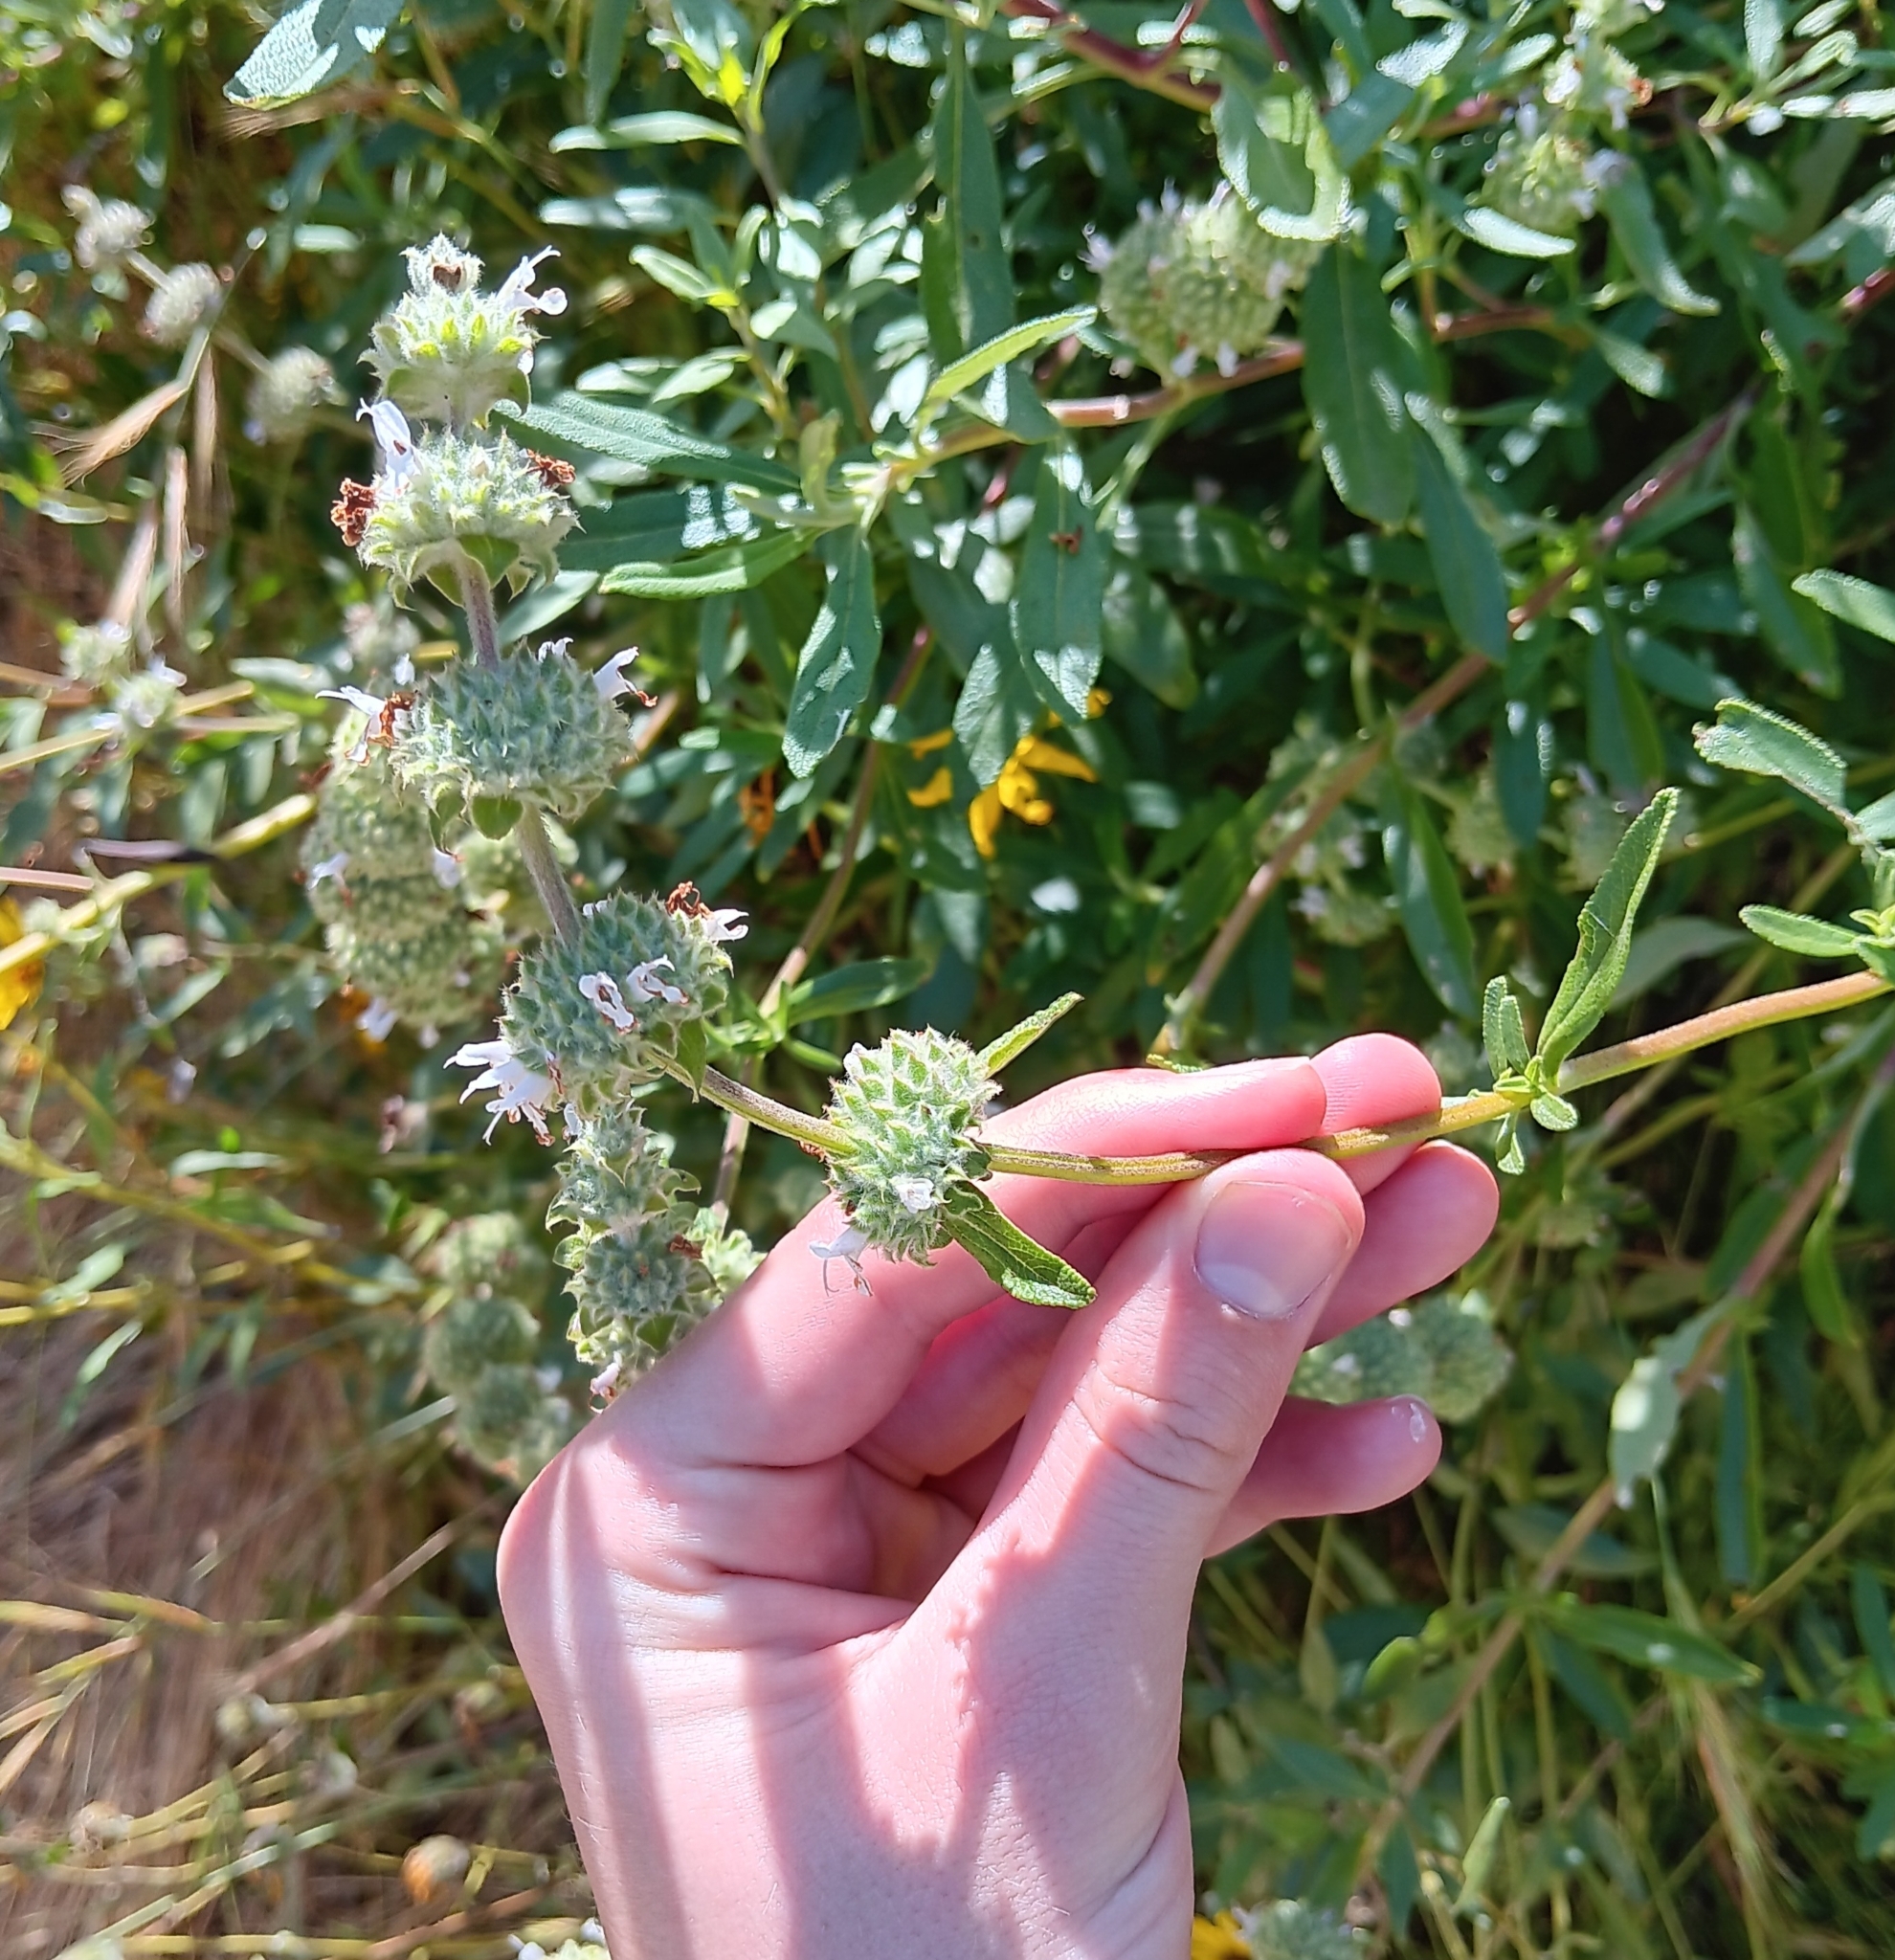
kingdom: Plantae
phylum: Tracheophyta
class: Magnoliopsida
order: Lamiales
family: Lamiaceae
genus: Salvia
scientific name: Salvia mellifera
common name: Black sage
